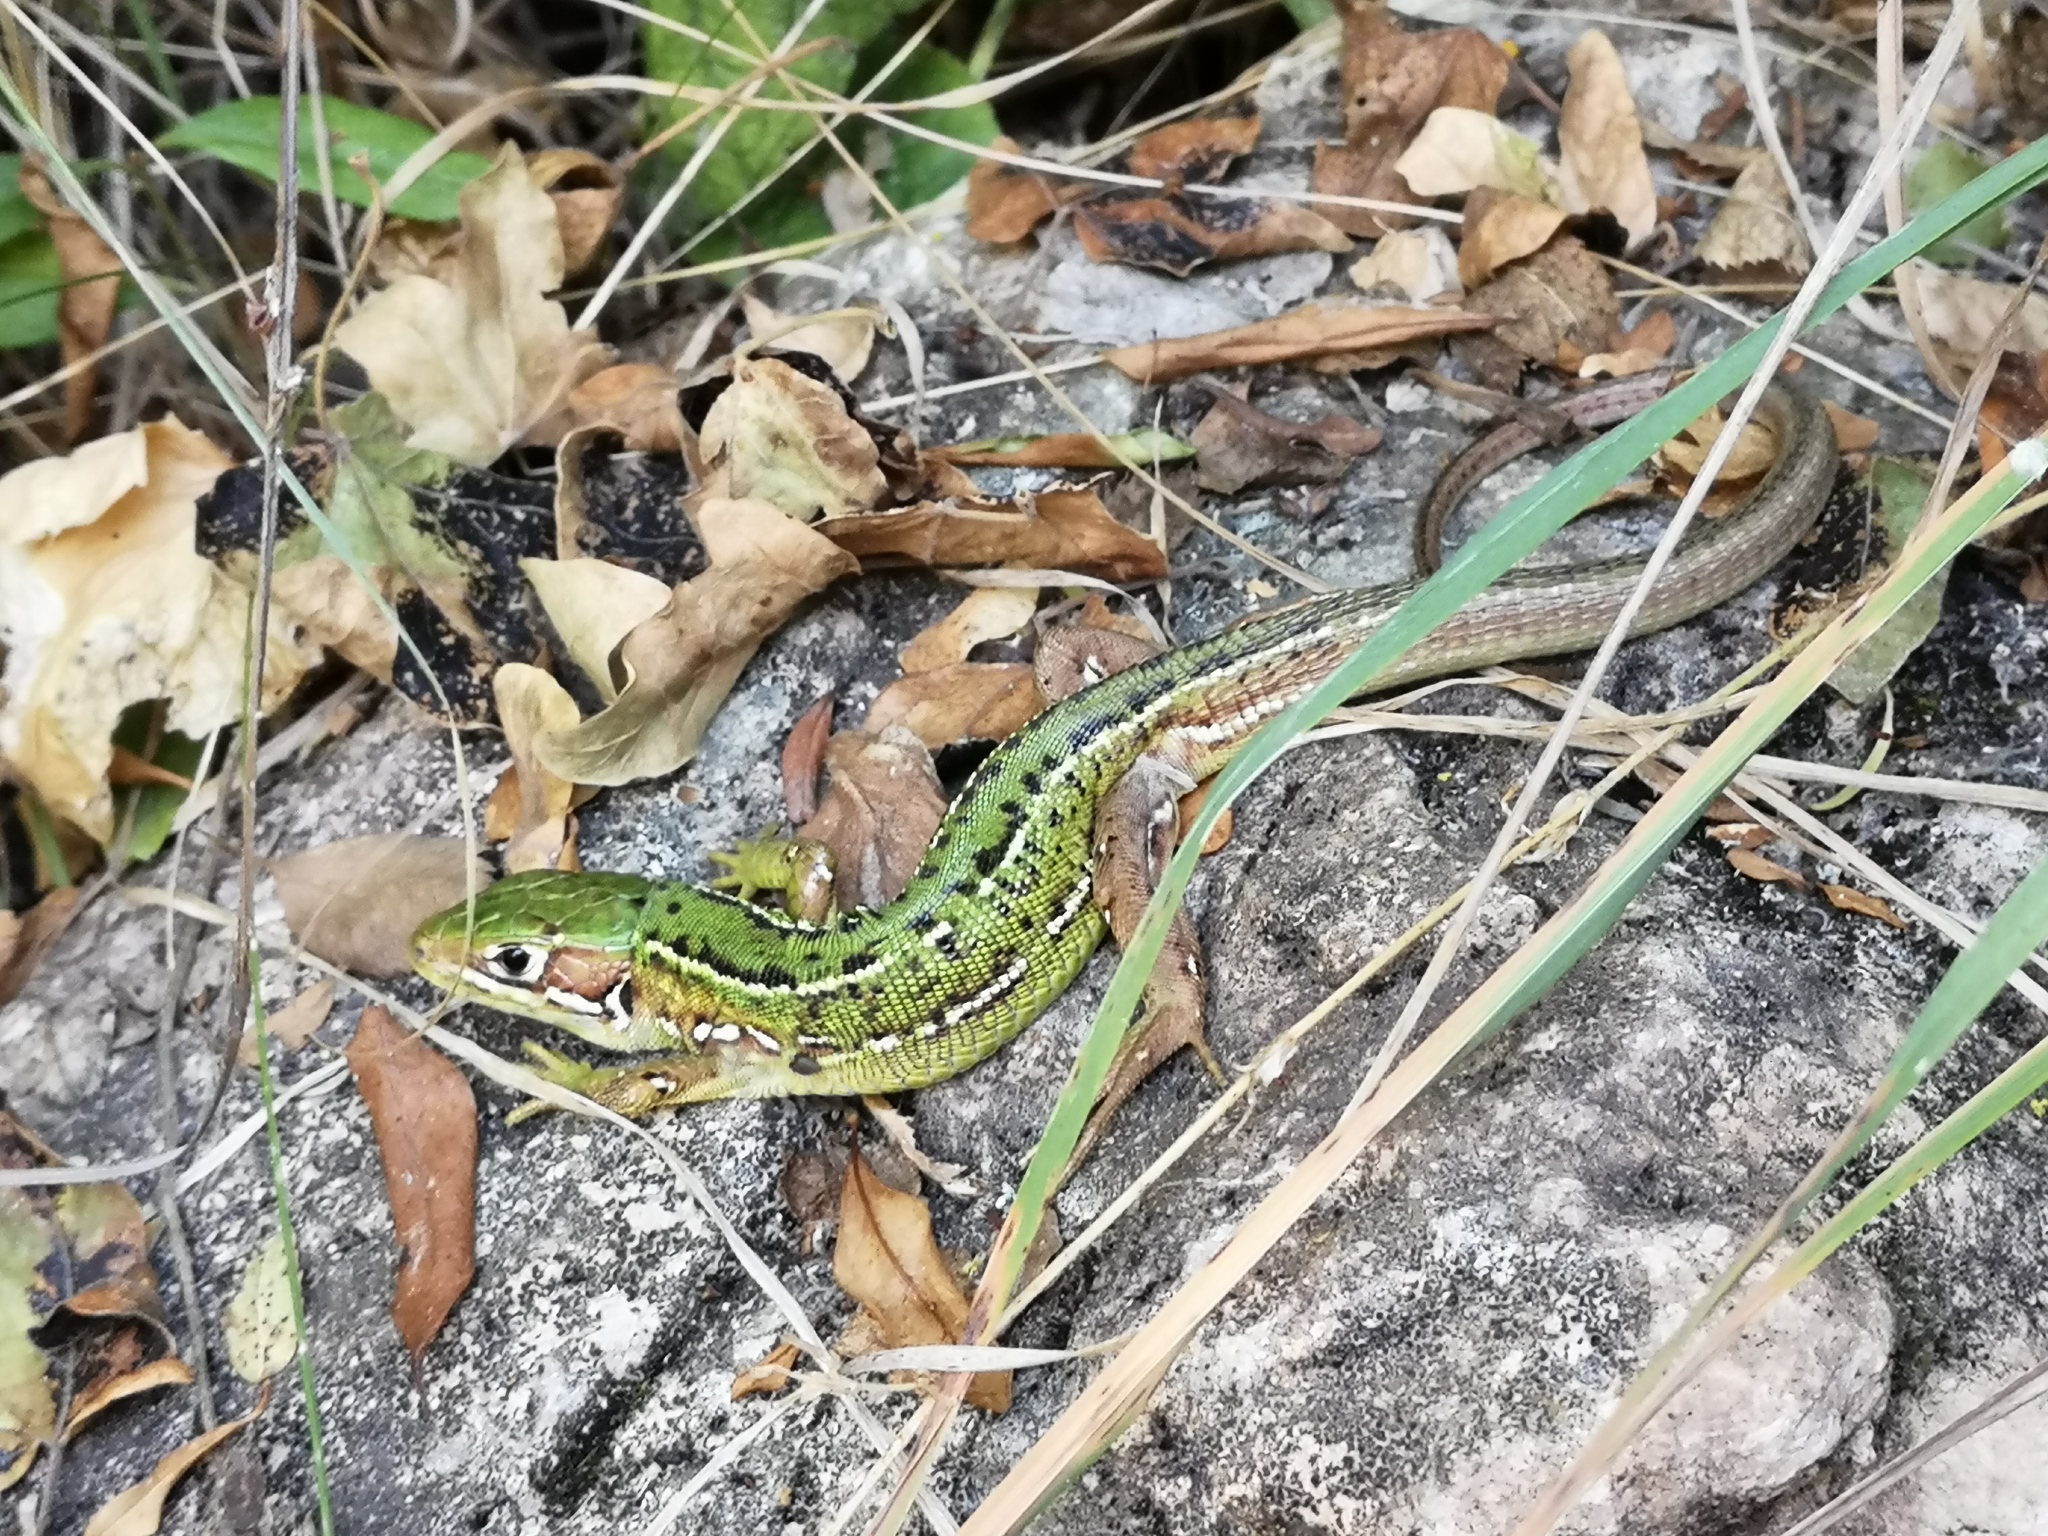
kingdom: Animalia
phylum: Chordata
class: Squamata
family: Lacertidae
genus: Lacerta
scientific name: Lacerta bilineata
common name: Western green lizard
